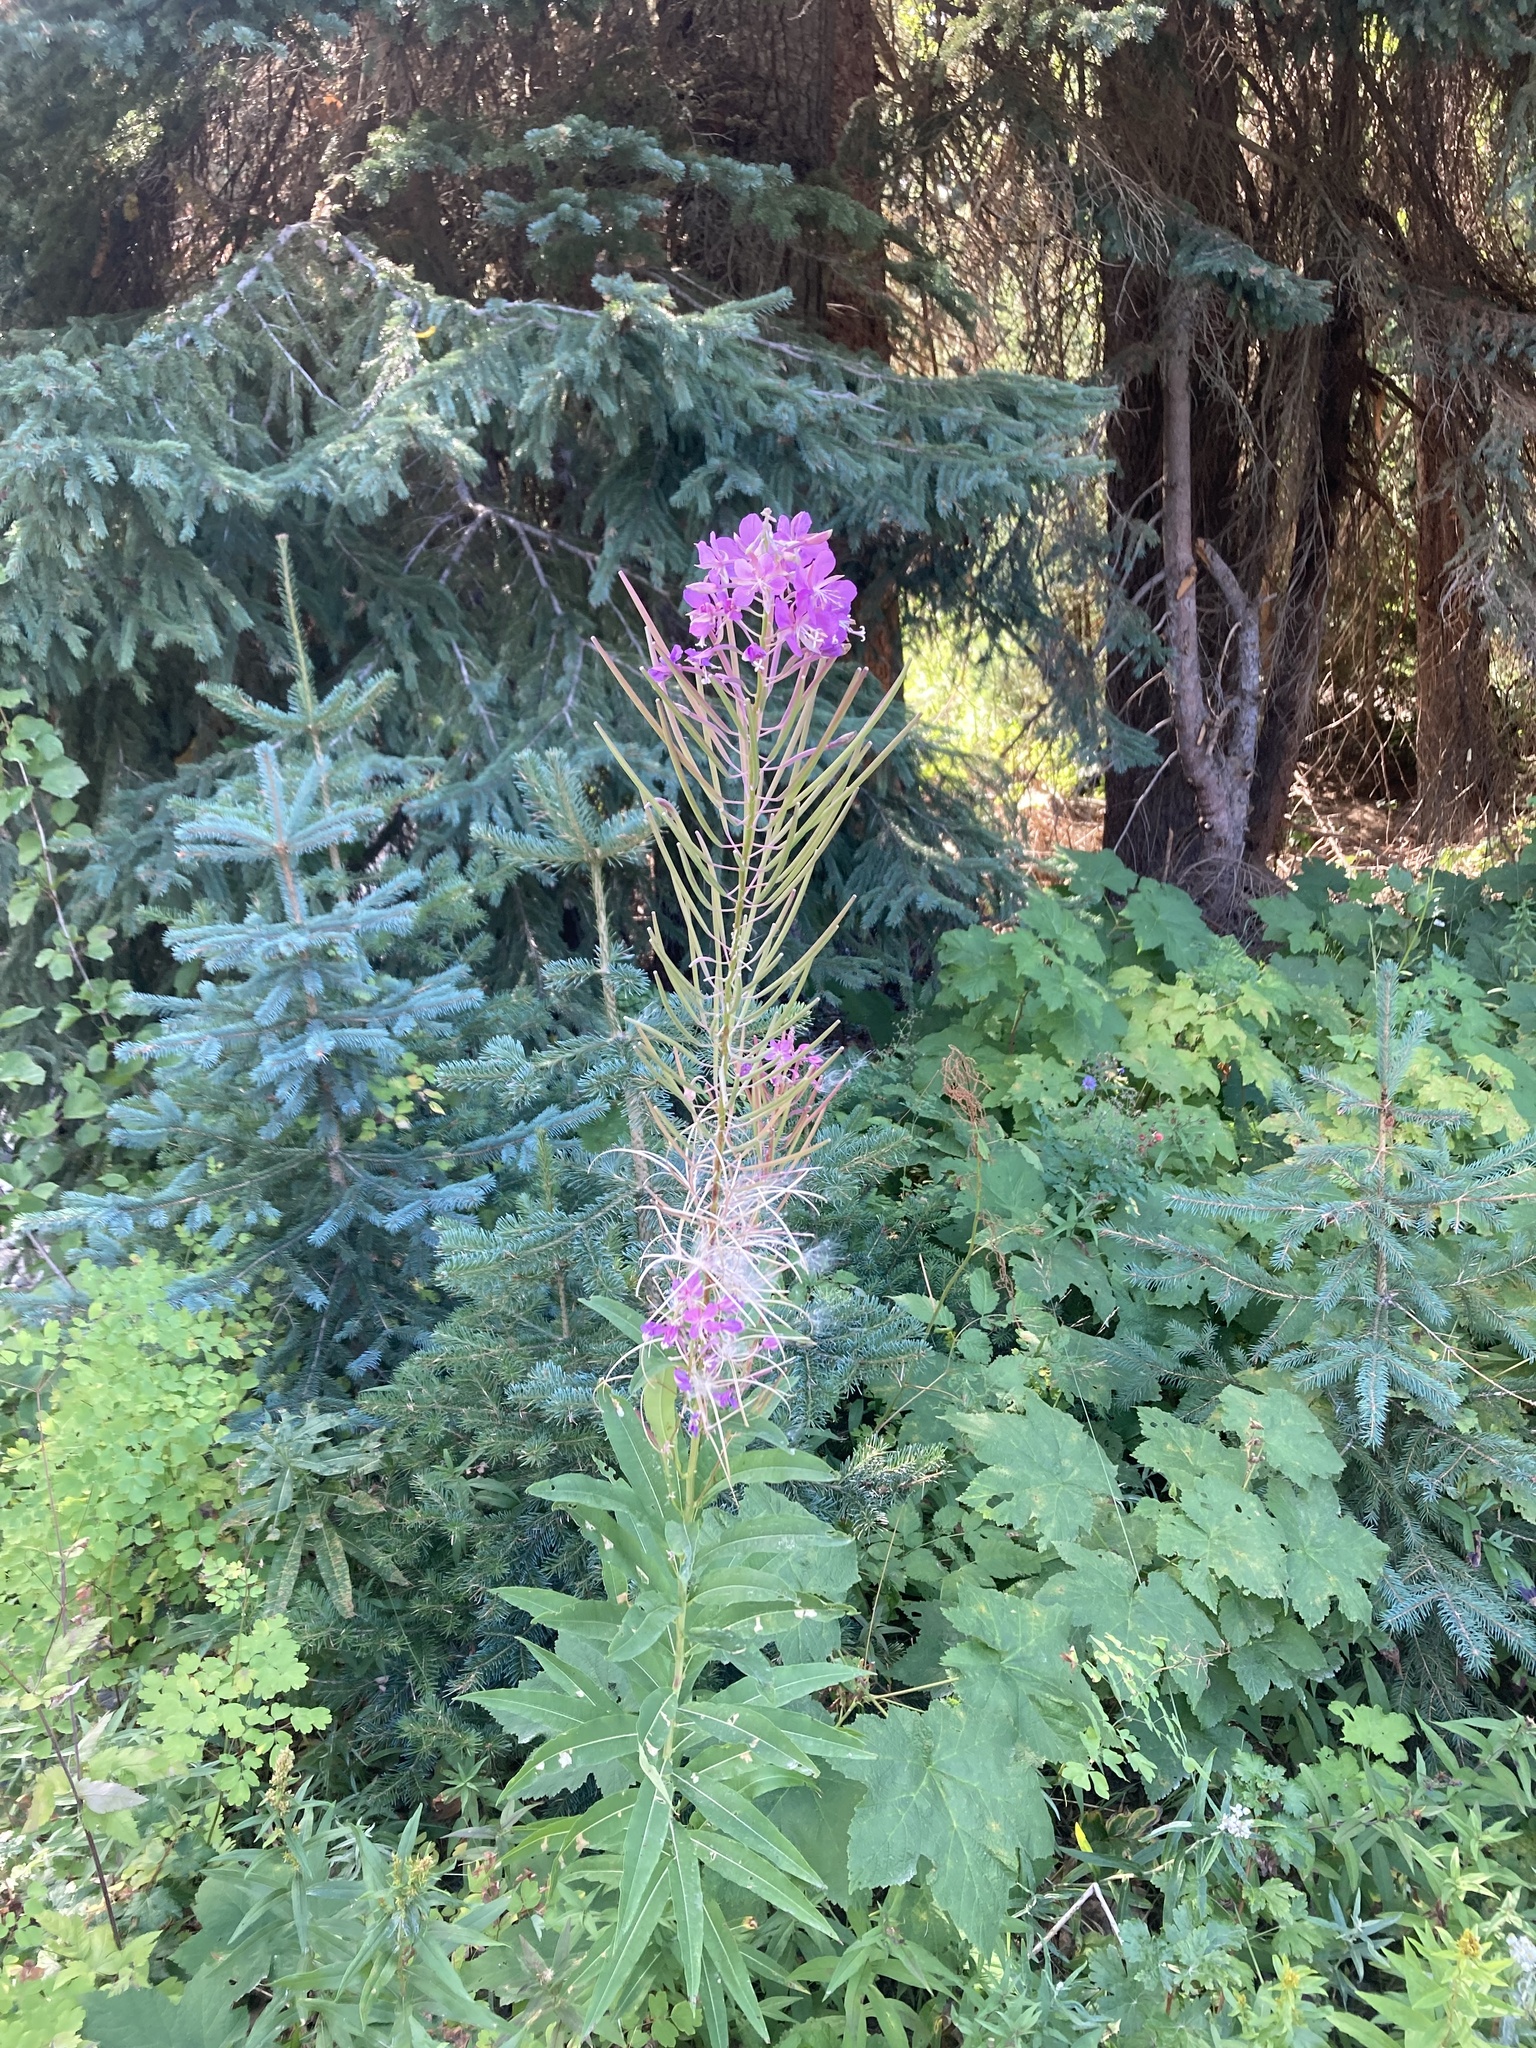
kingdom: Plantae
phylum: Tracheophyta
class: Magnoliopsida
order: Myrtales
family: Onagraceae
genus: Chamaenerion
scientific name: Chamaenerion angustifolium
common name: Fireweed
